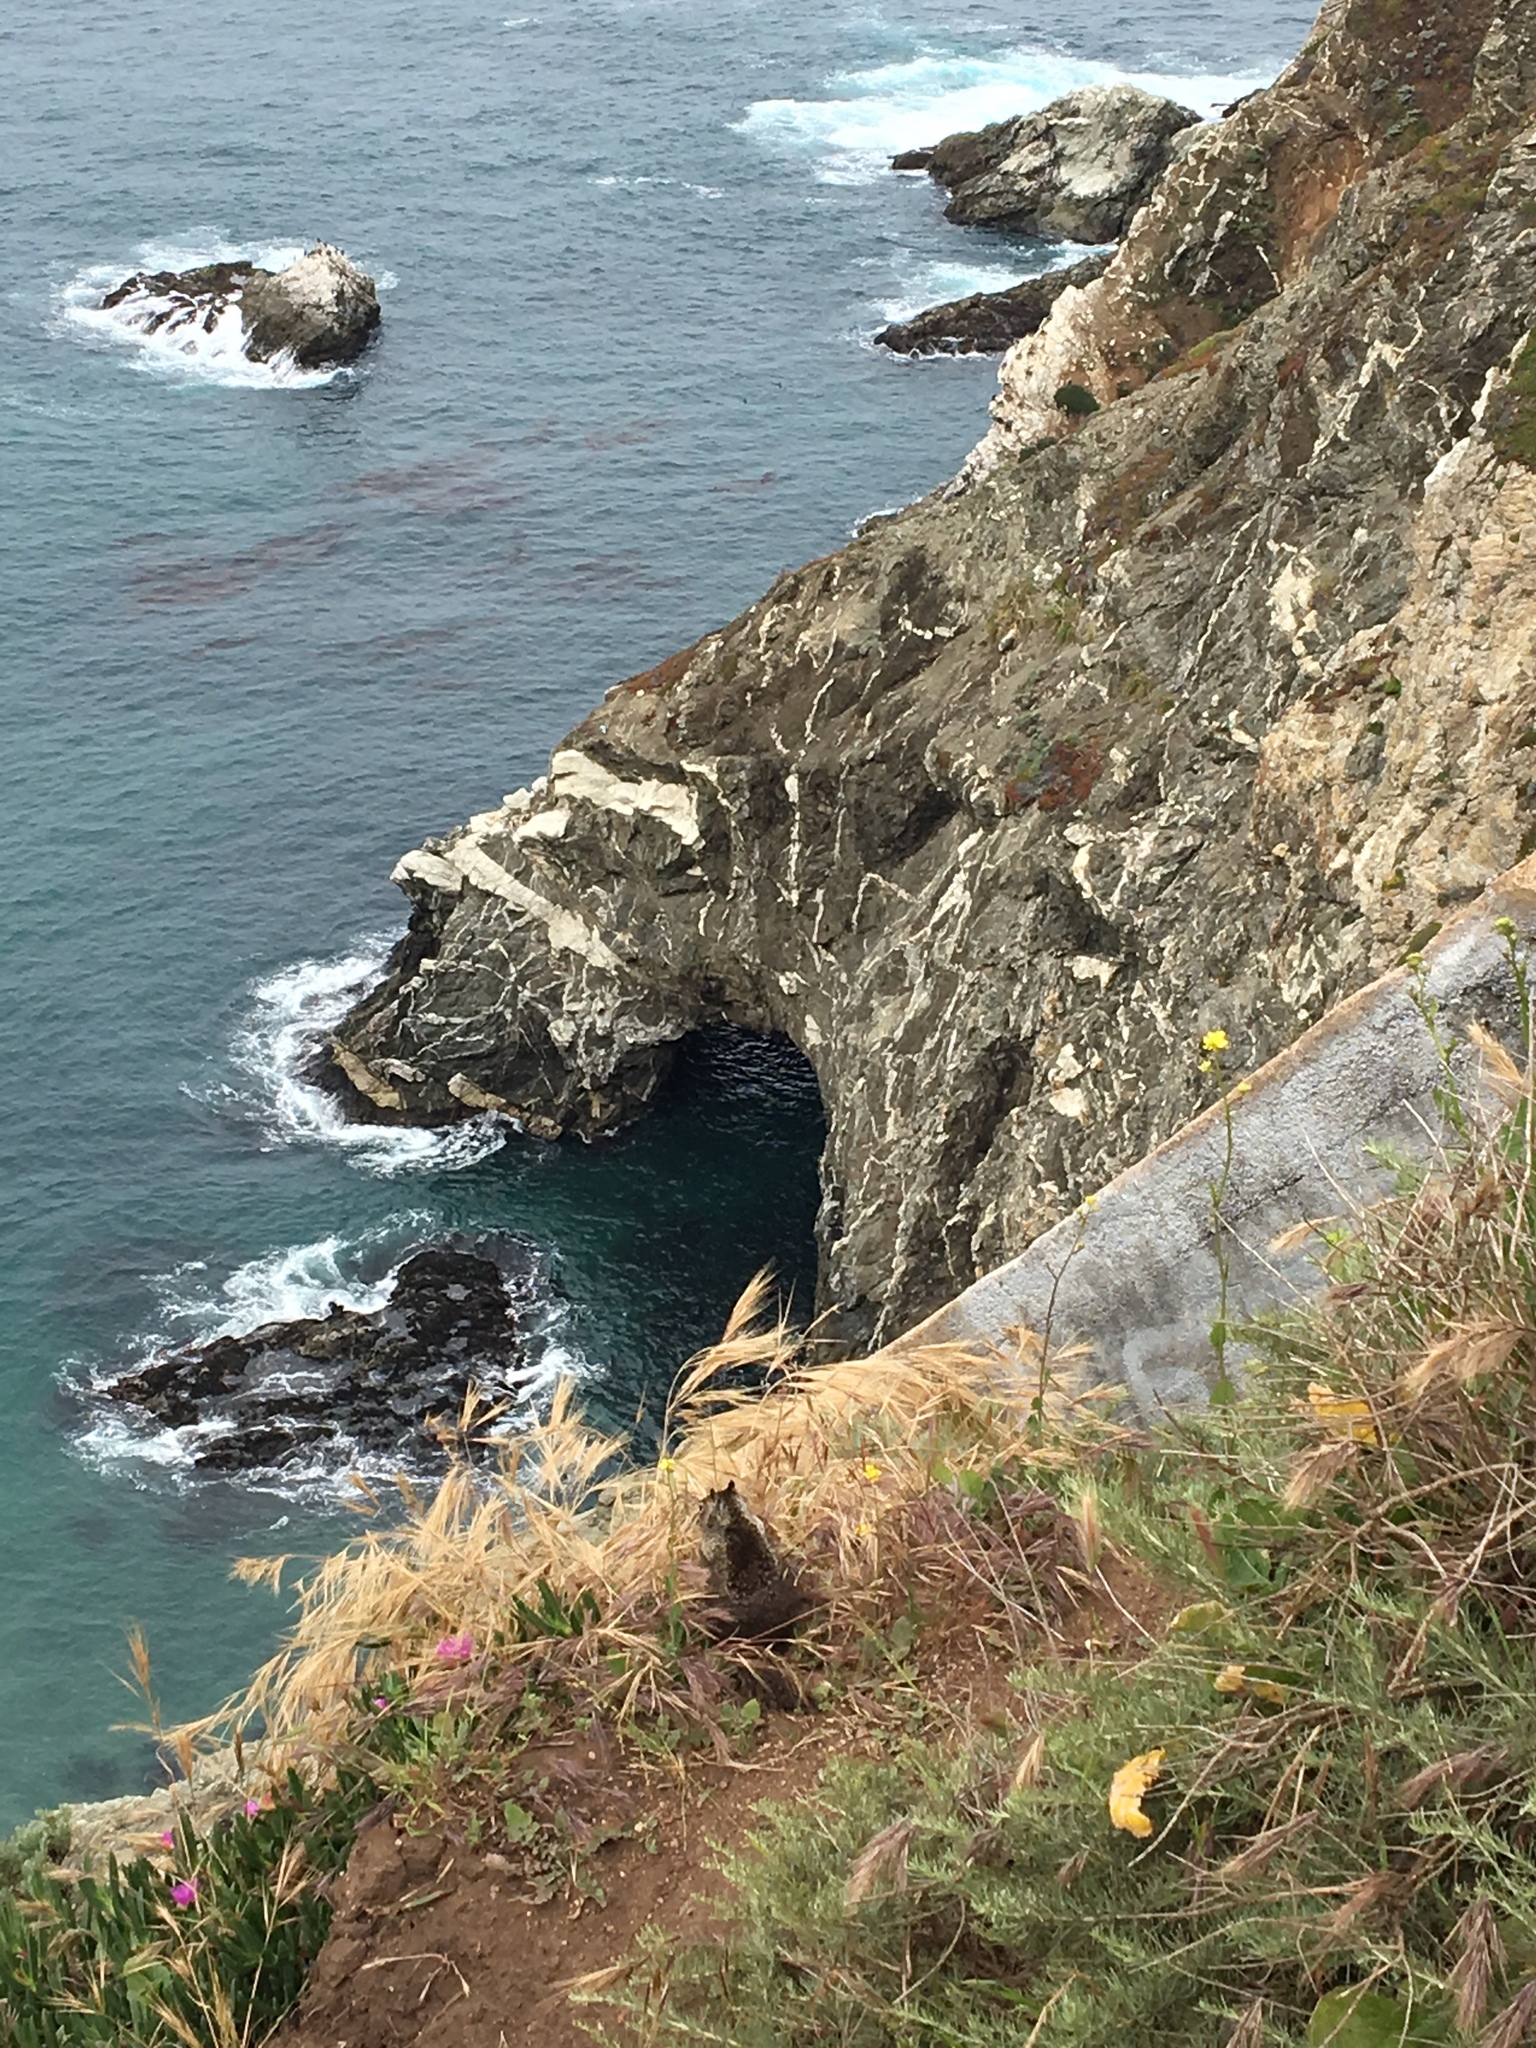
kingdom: Animalia
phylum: Chordata
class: Mammalia
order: Rodentia
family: Sciuridae
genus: Otospermophilus
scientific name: Otospermophilus beecheyi
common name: California ground squirrel
